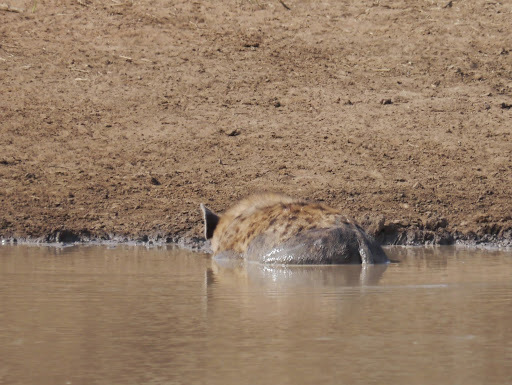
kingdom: Animalia
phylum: Chordata
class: Mammalia
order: Carnivora
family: Hyaenidae
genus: Crocuta
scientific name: Crocuta crocuta
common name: Spotted hyaena
